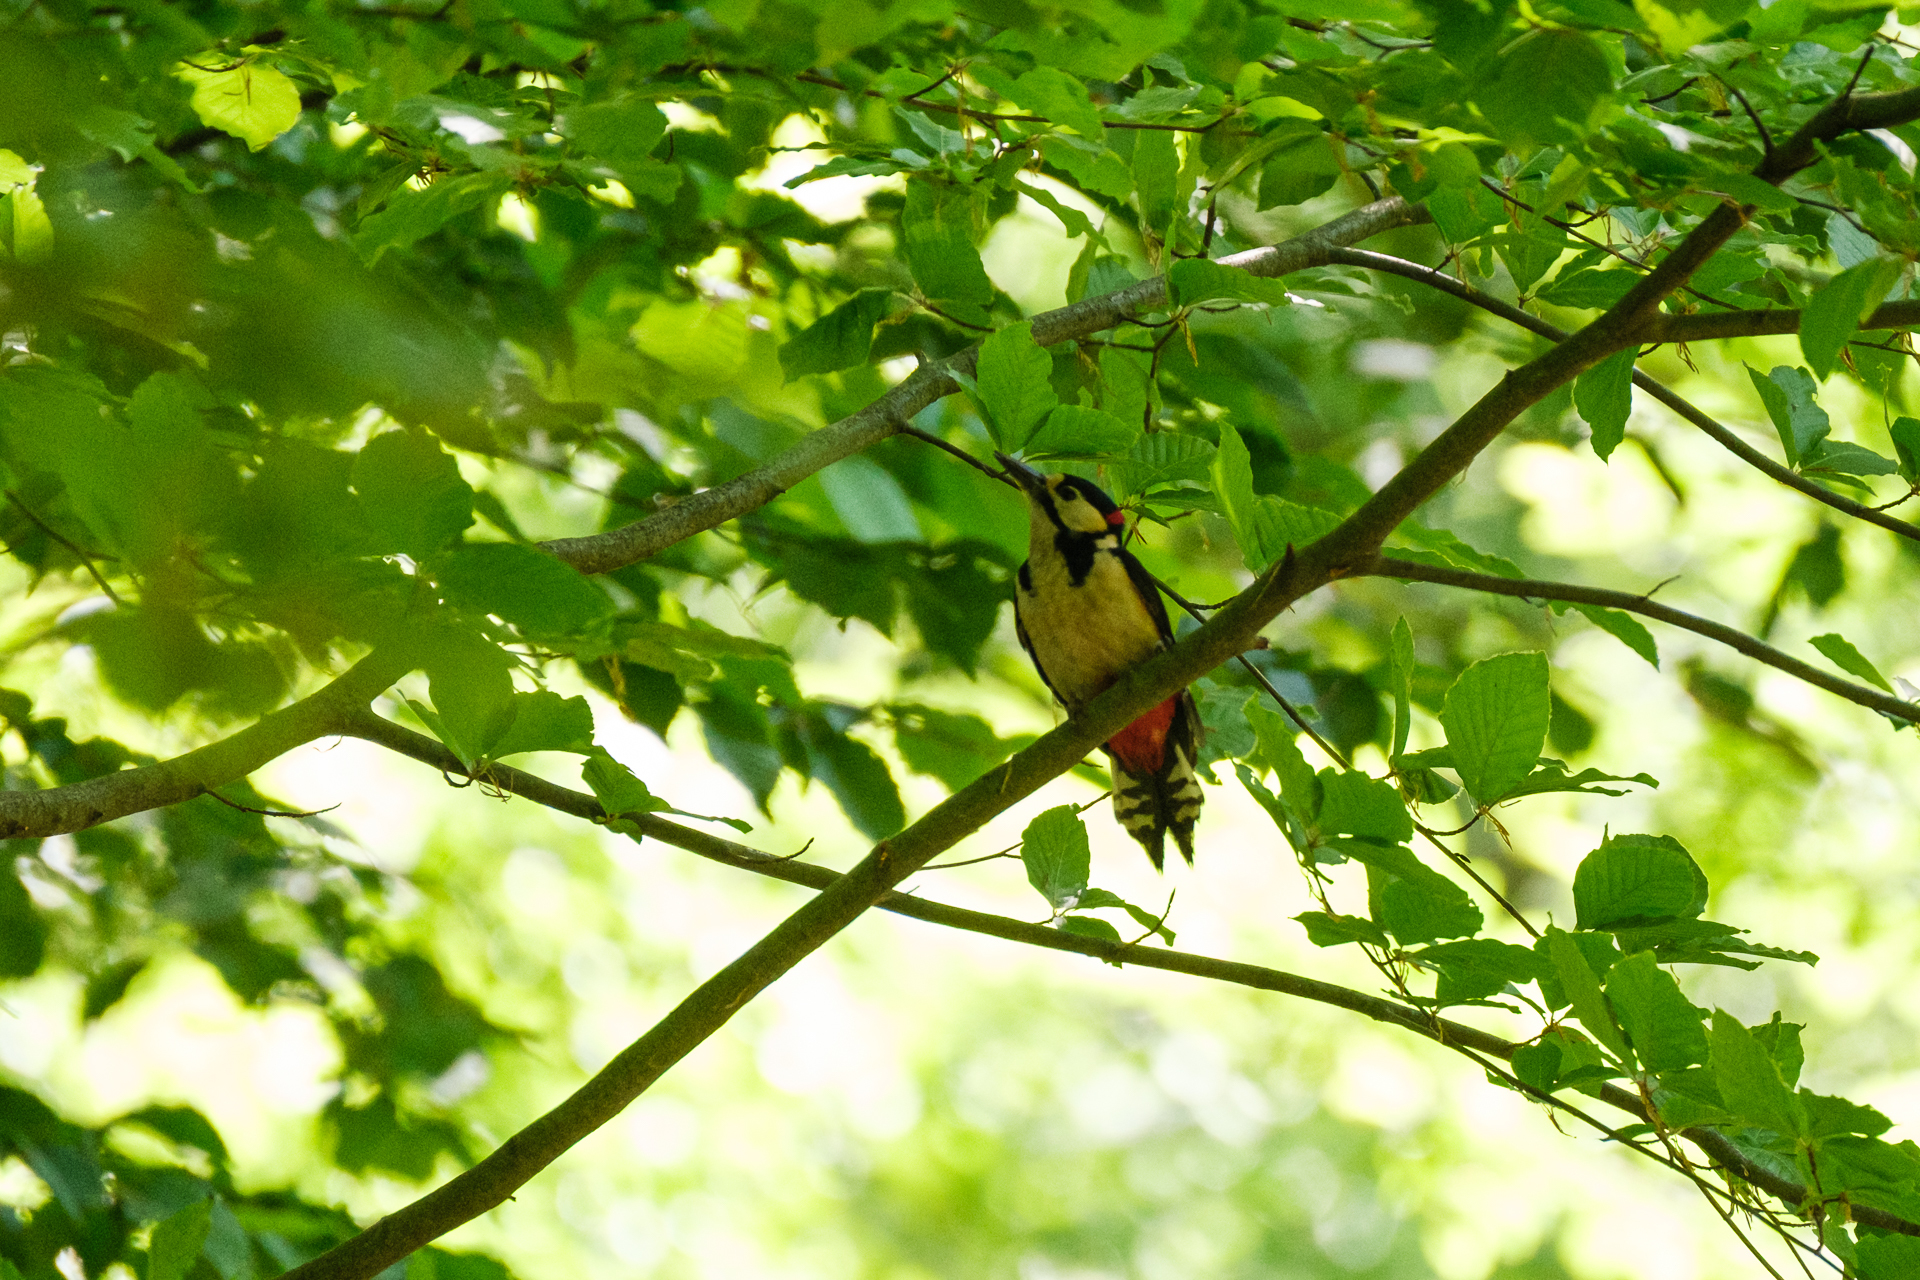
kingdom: Animalia
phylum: Chordata
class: Aves
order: Piciformes
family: Picidae
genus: Dendrocopos
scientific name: Dendrocopos major
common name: Great spotted woodpecker
